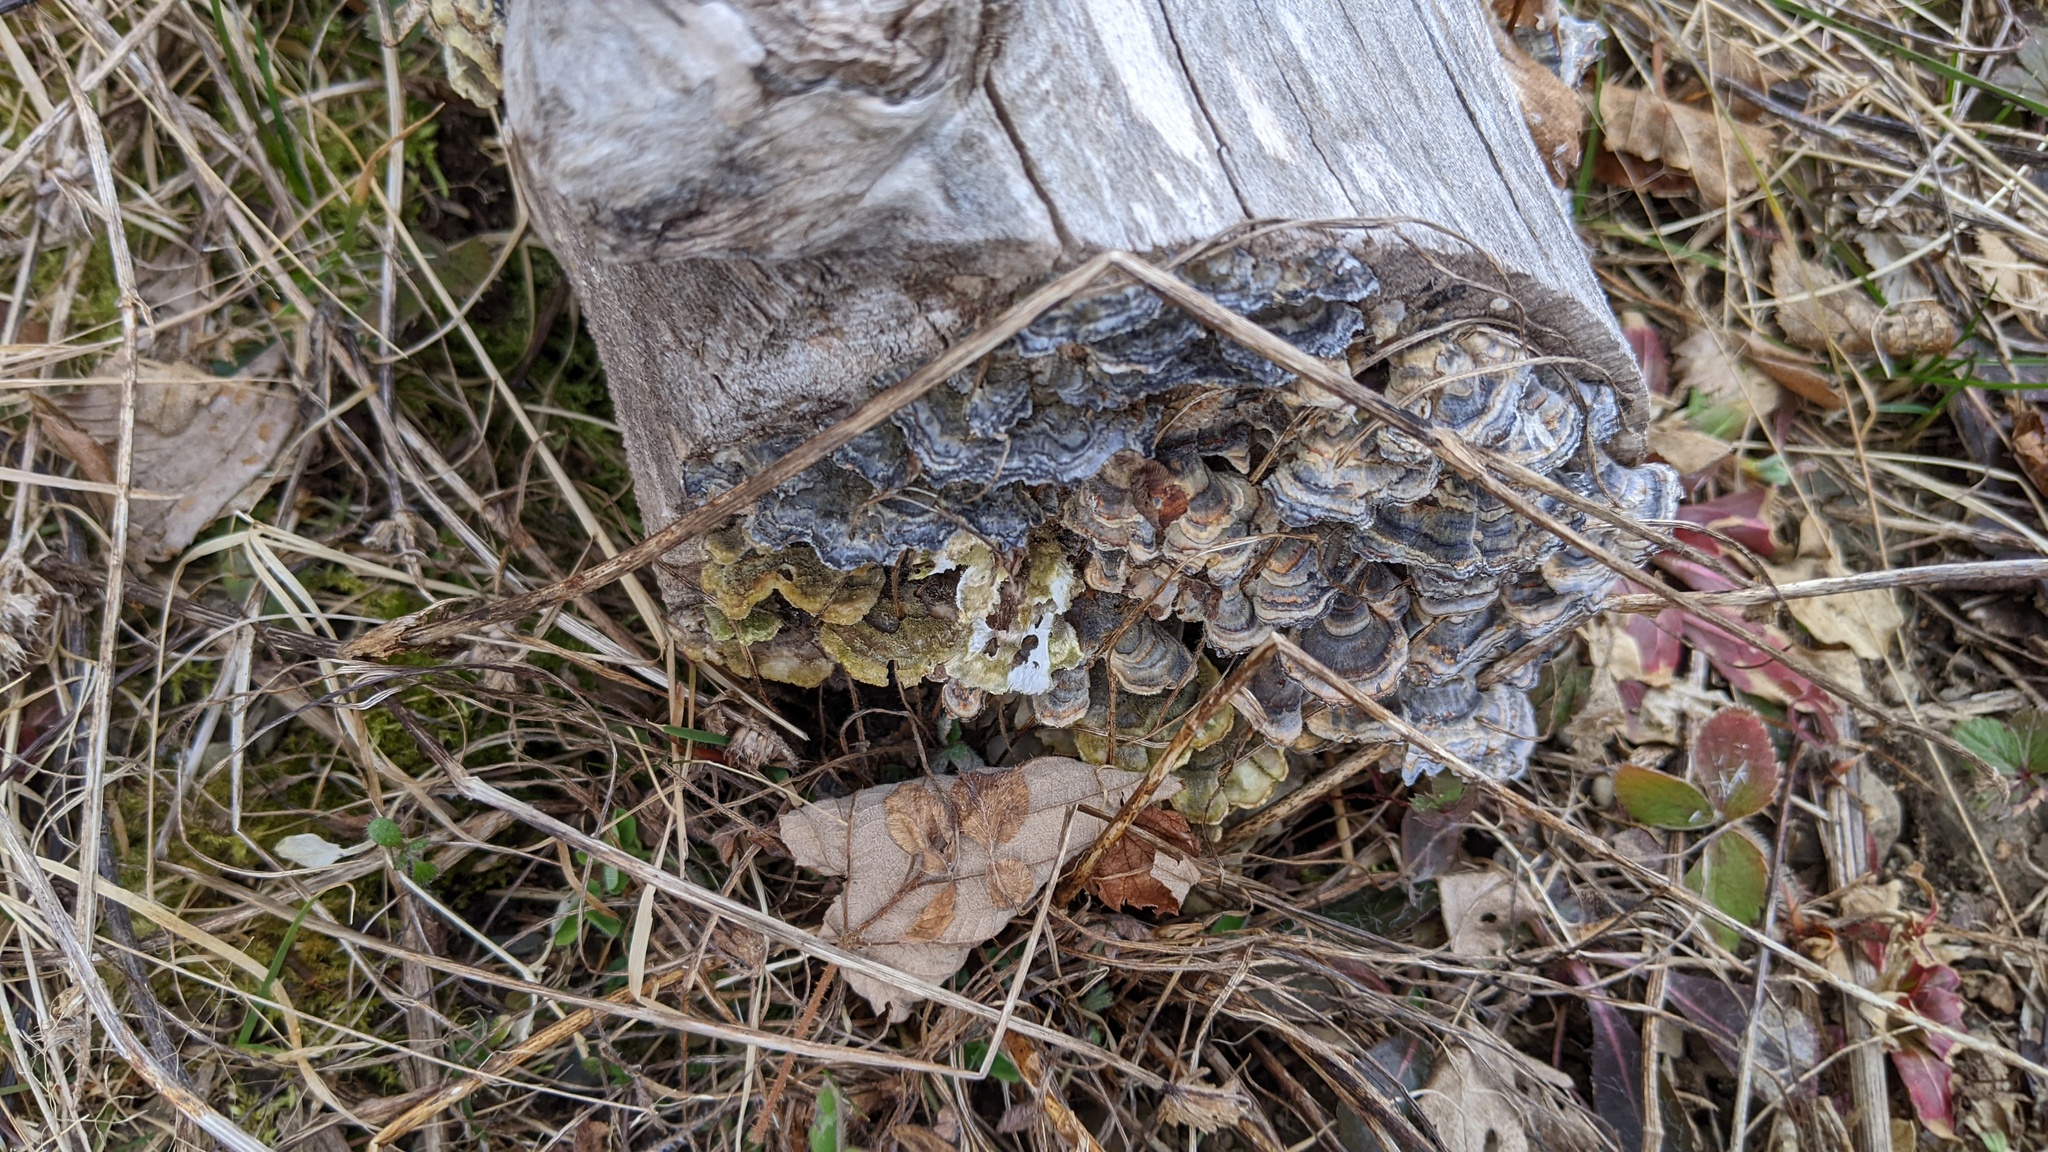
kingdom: Fungi
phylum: Basidiomycota
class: Agaricomycetes
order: Polyporales
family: Polyporaceae
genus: Trametes
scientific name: Trametes versicolor
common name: Turkeytail
